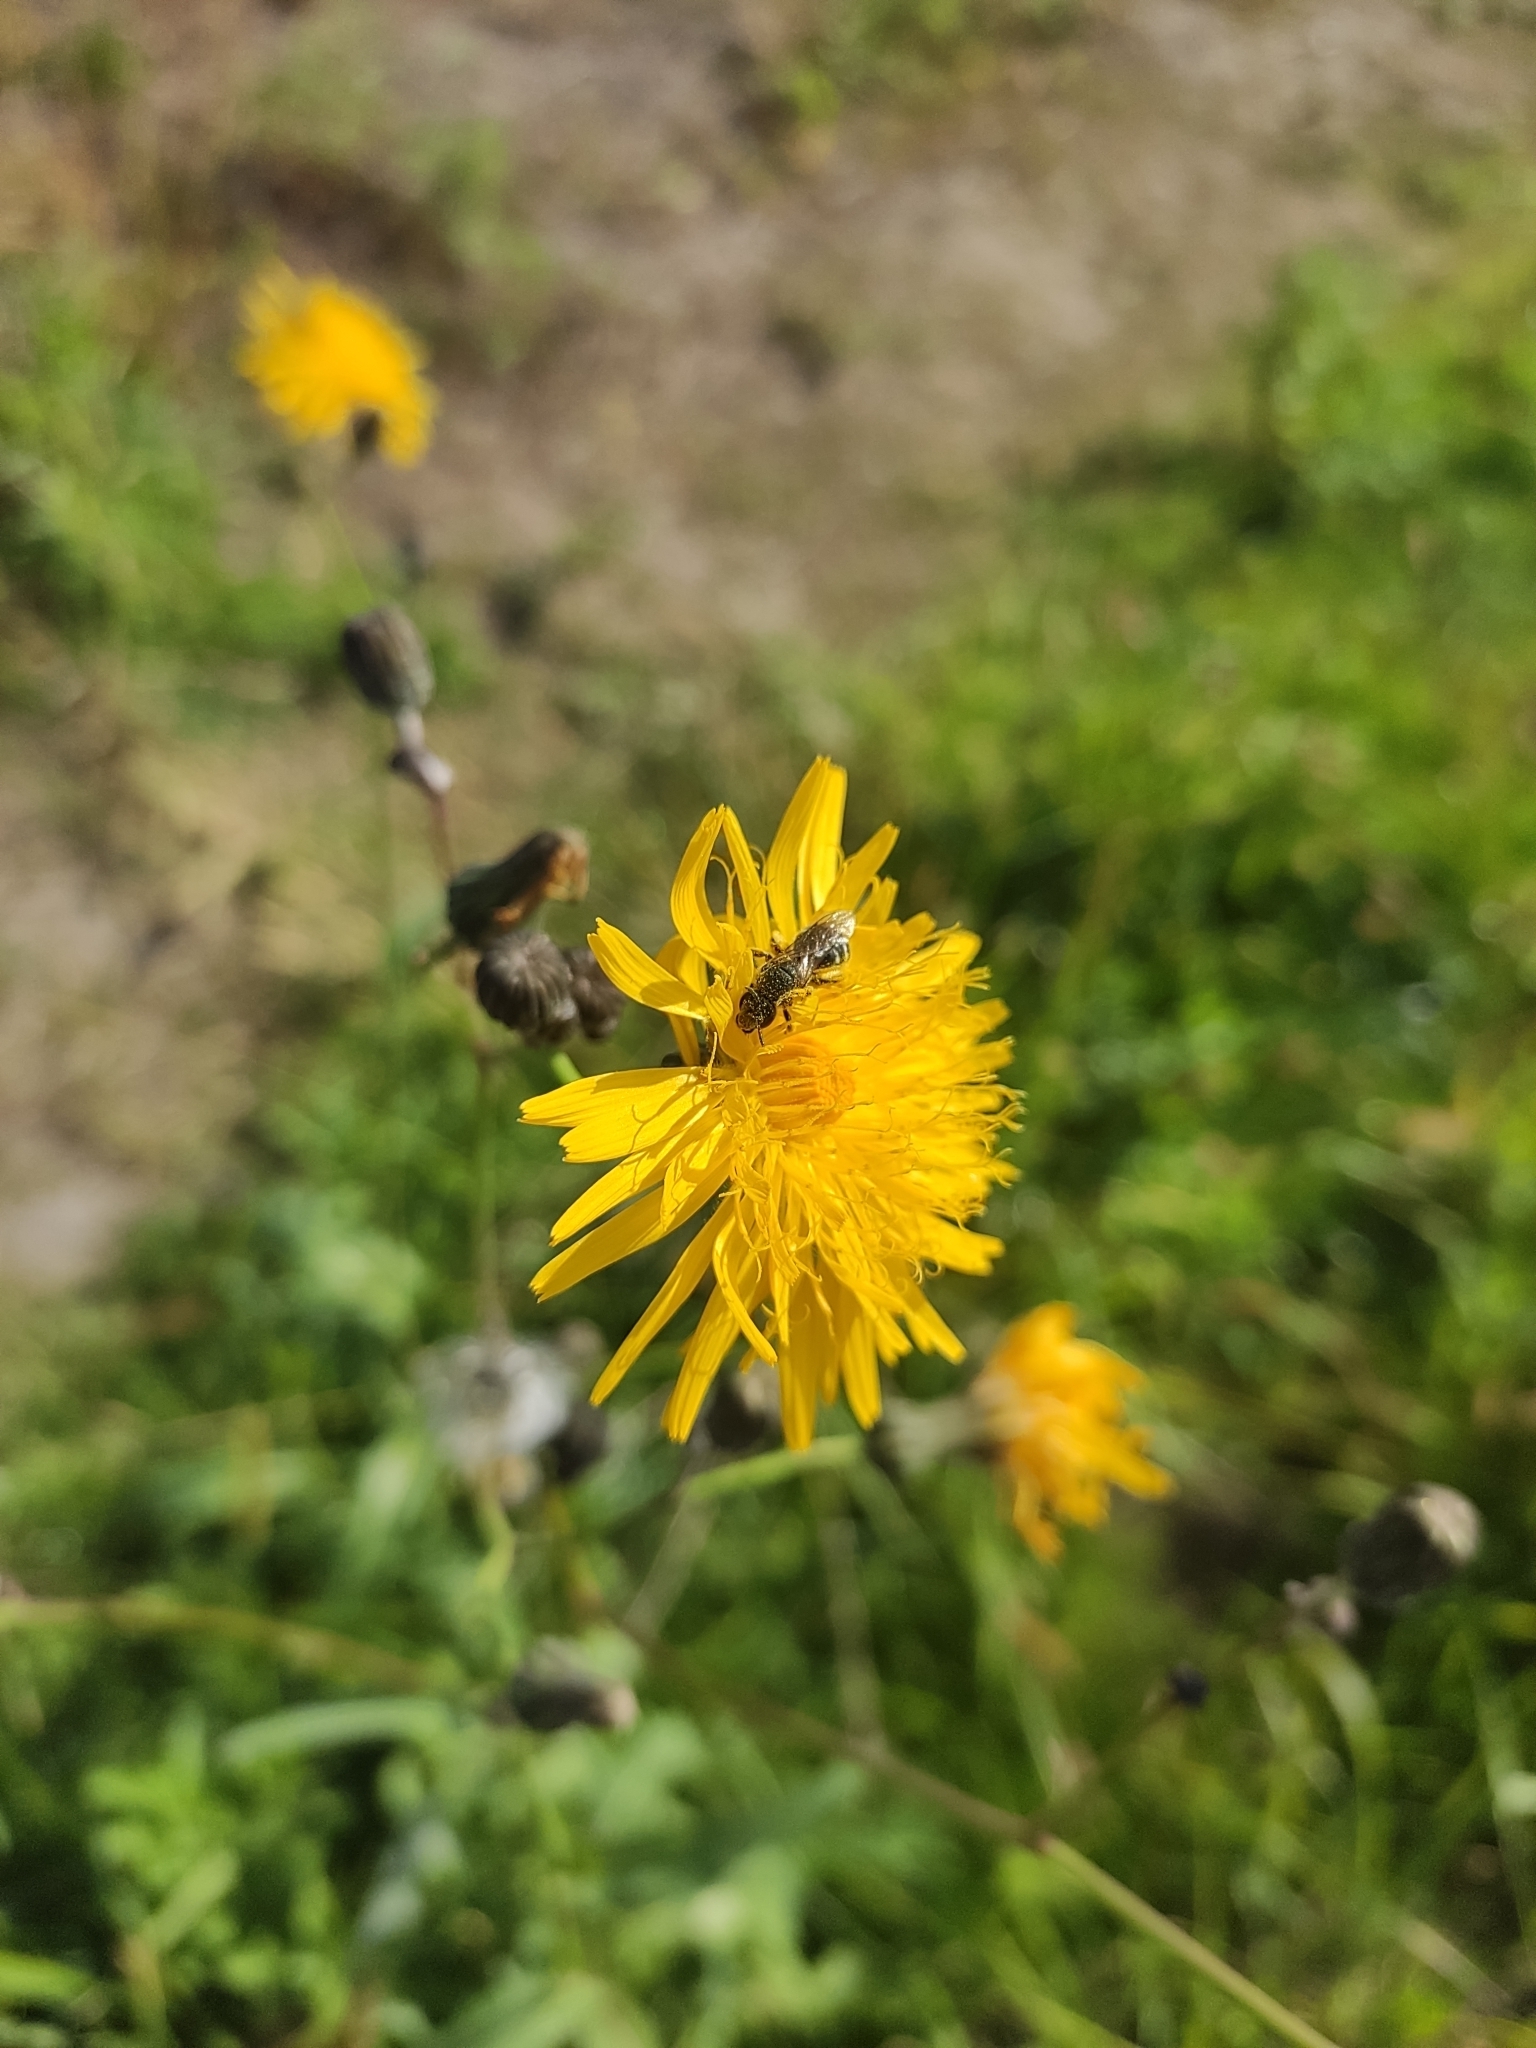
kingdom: Plantae
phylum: Tracheophyta
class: Magnoliopsida
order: Asterales
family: Asteraceae
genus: Sonchus
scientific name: Sonchus arvensis
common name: Perennial sow-thistle
